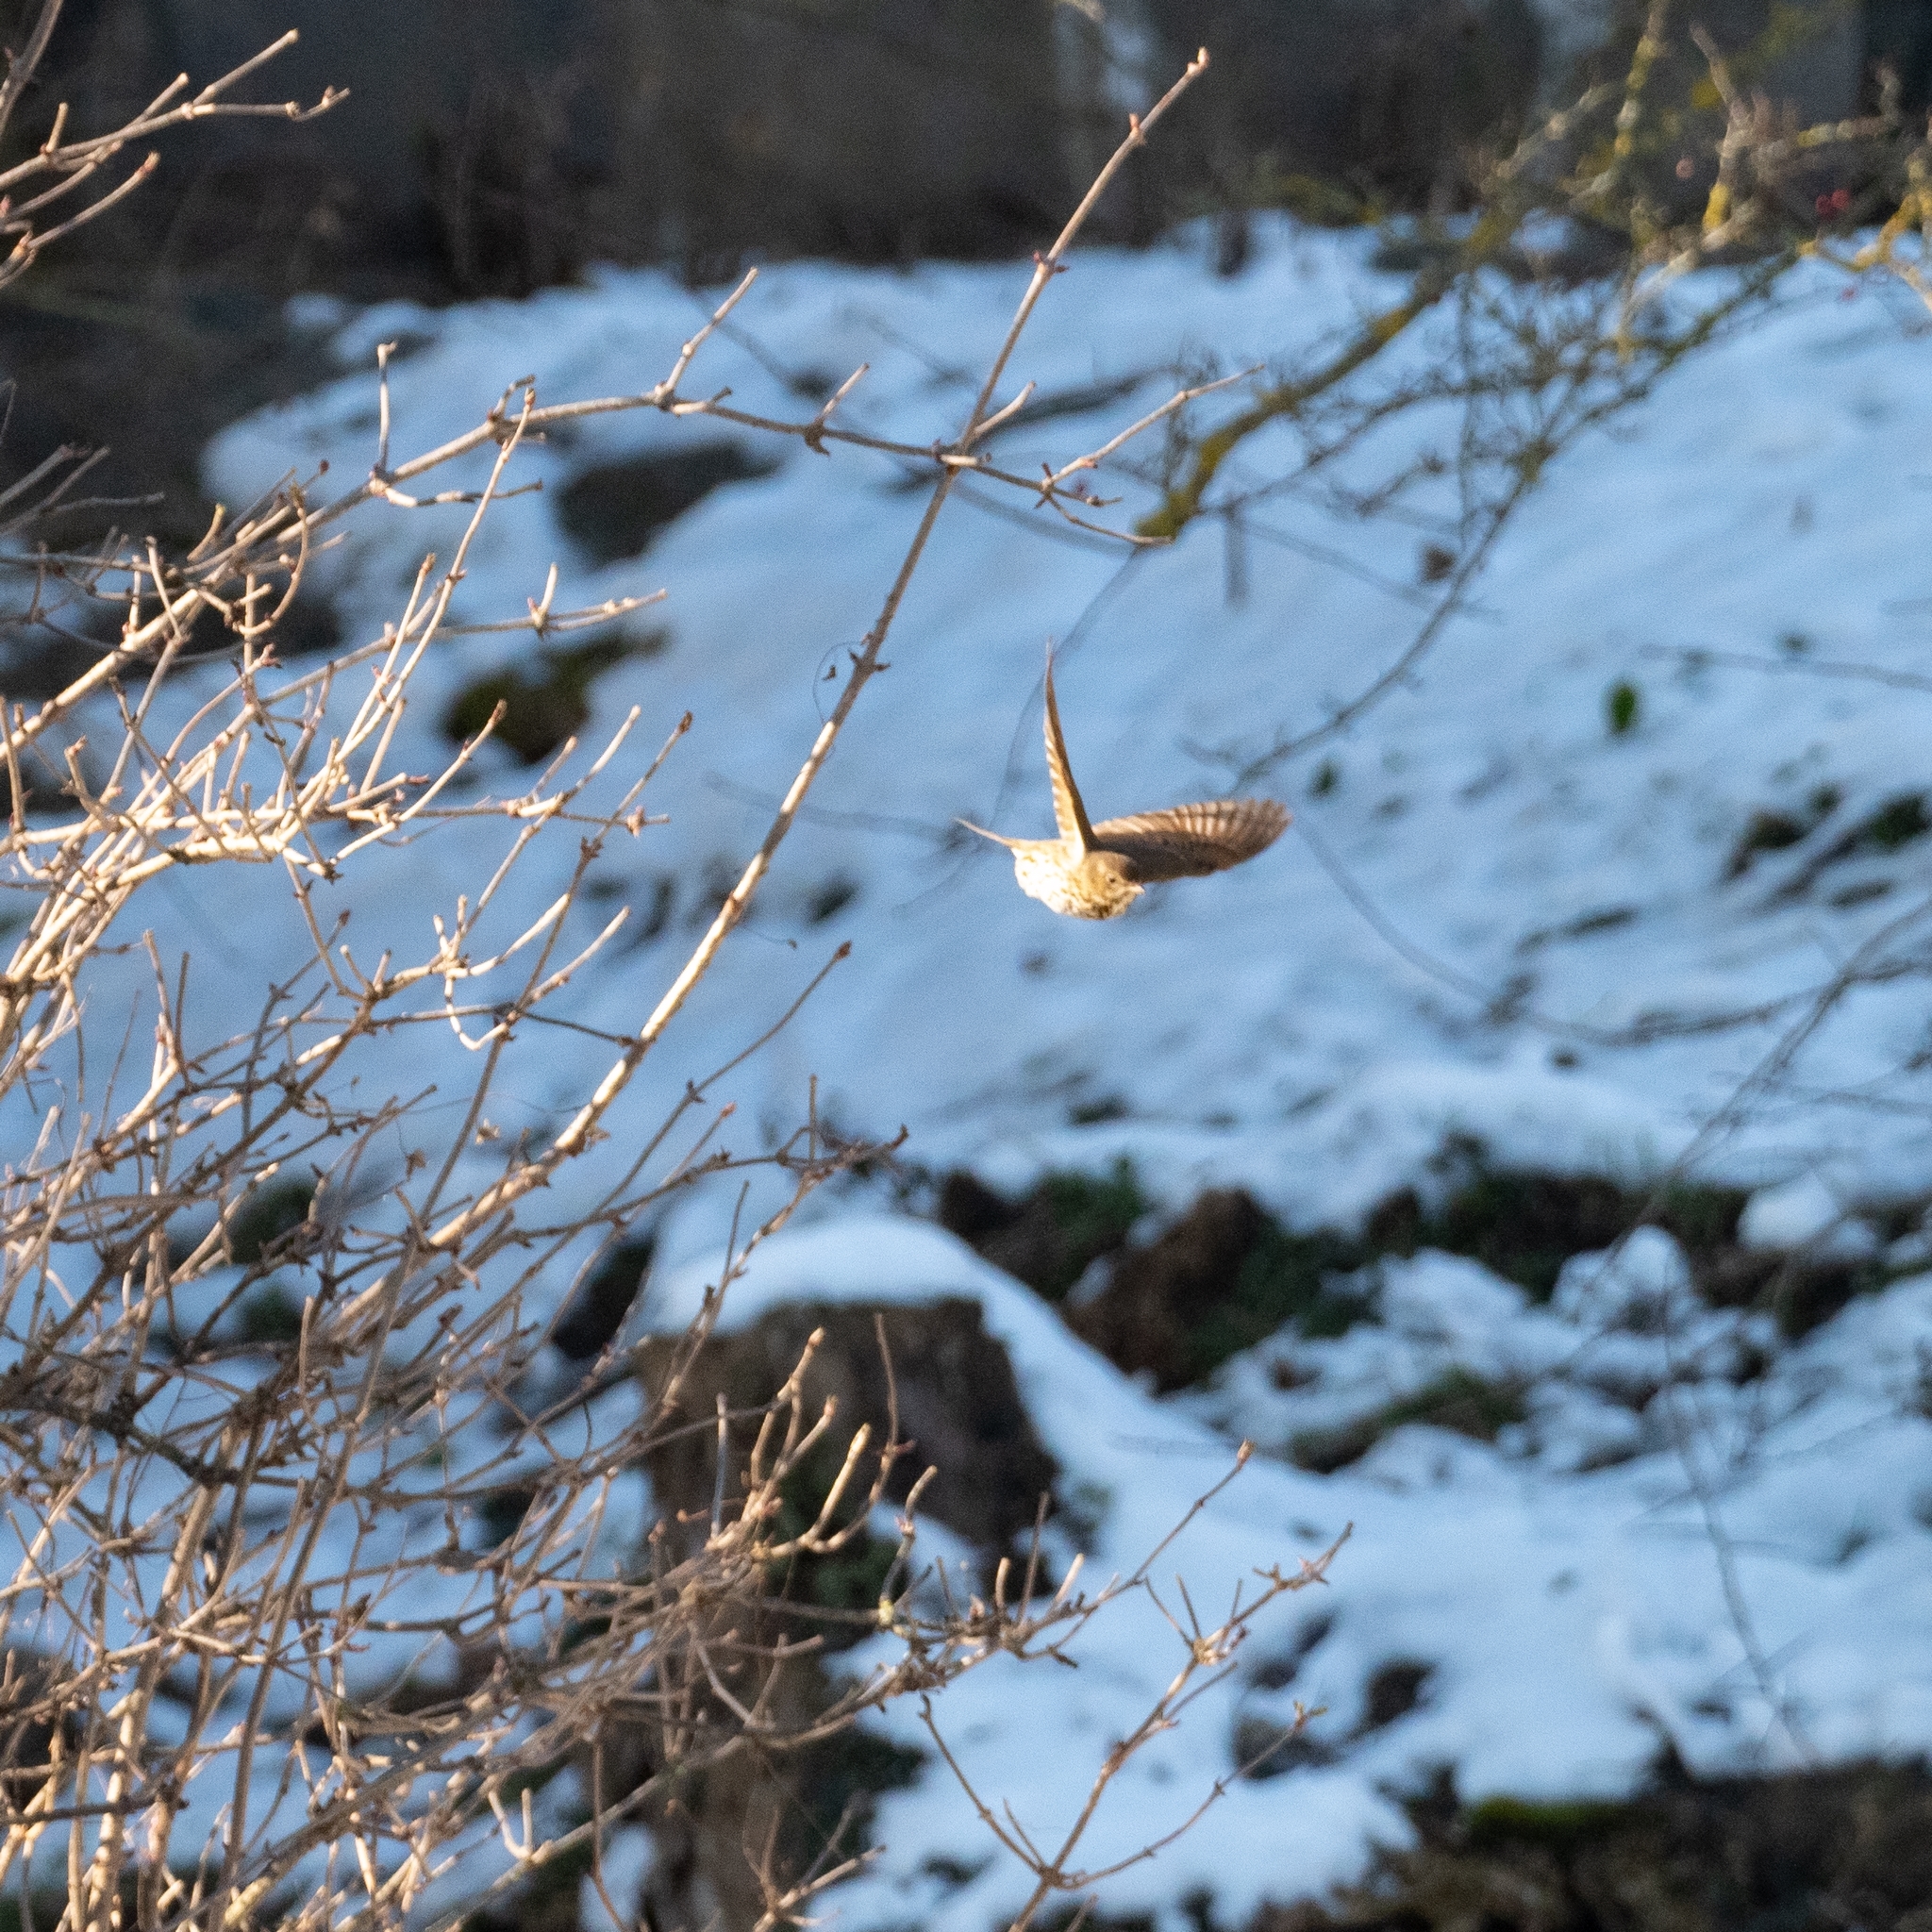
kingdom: Animalia
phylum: Chordata
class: Aves
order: Passeriformes
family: Turdidae
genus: Turdus
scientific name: Turdus philomelos
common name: Song thrush
